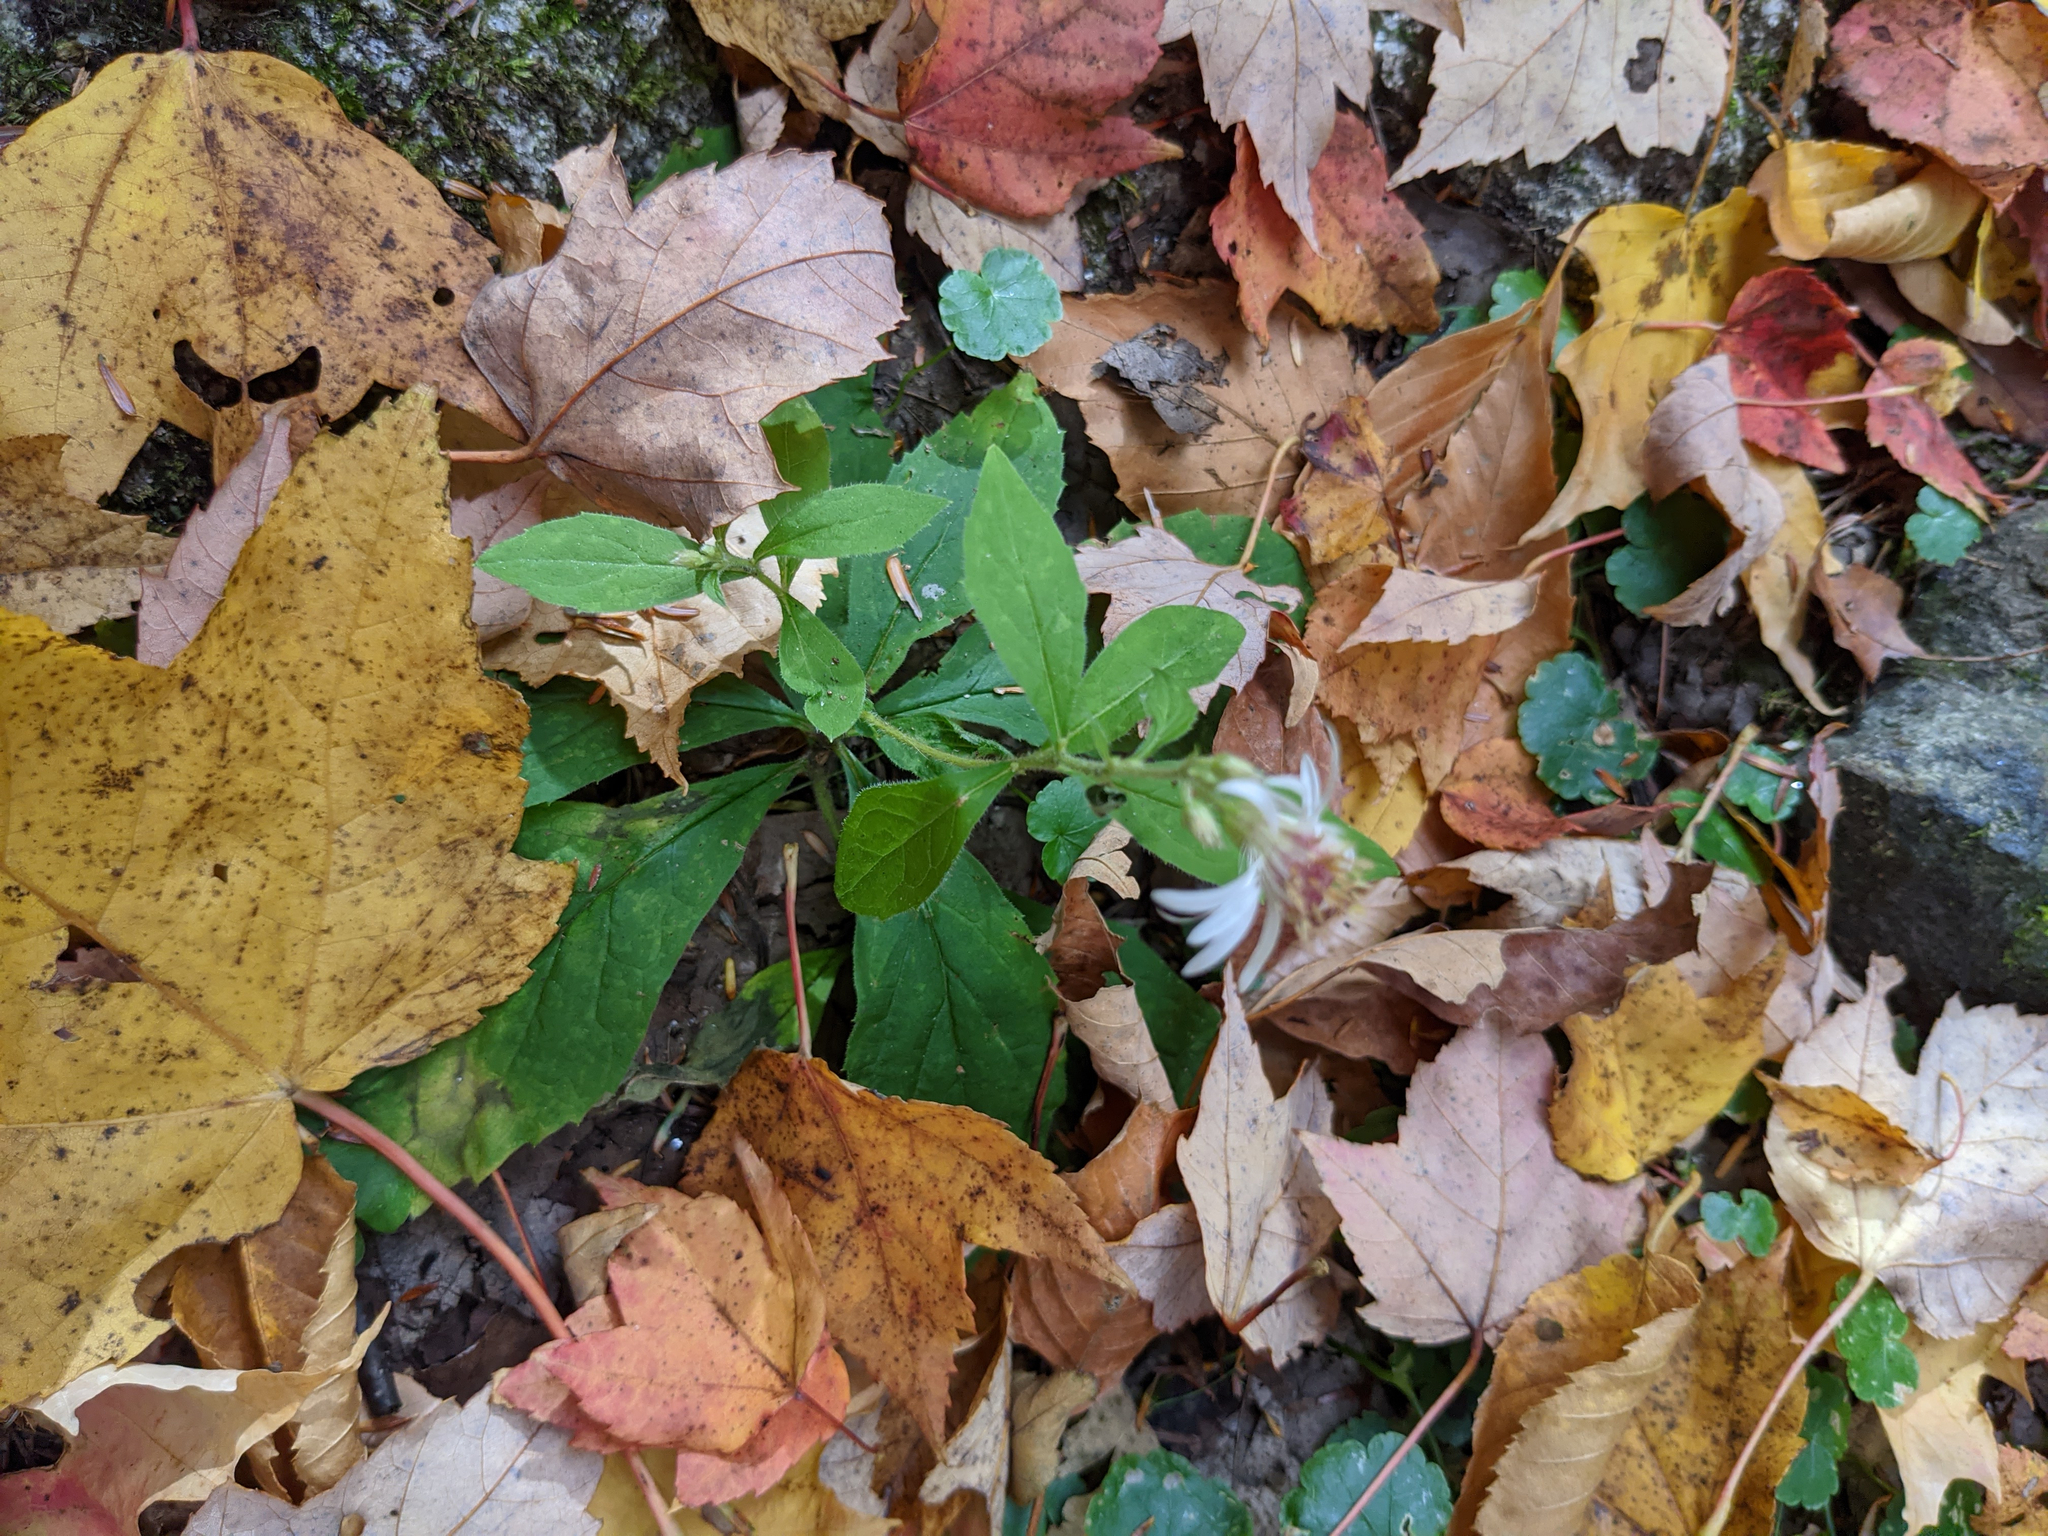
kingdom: Plantae
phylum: Tracheophyta
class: Magnoliopsida
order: Asterales
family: Asteraceae
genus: Oclemena
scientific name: Oclemena acuminata
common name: Mountain aster
